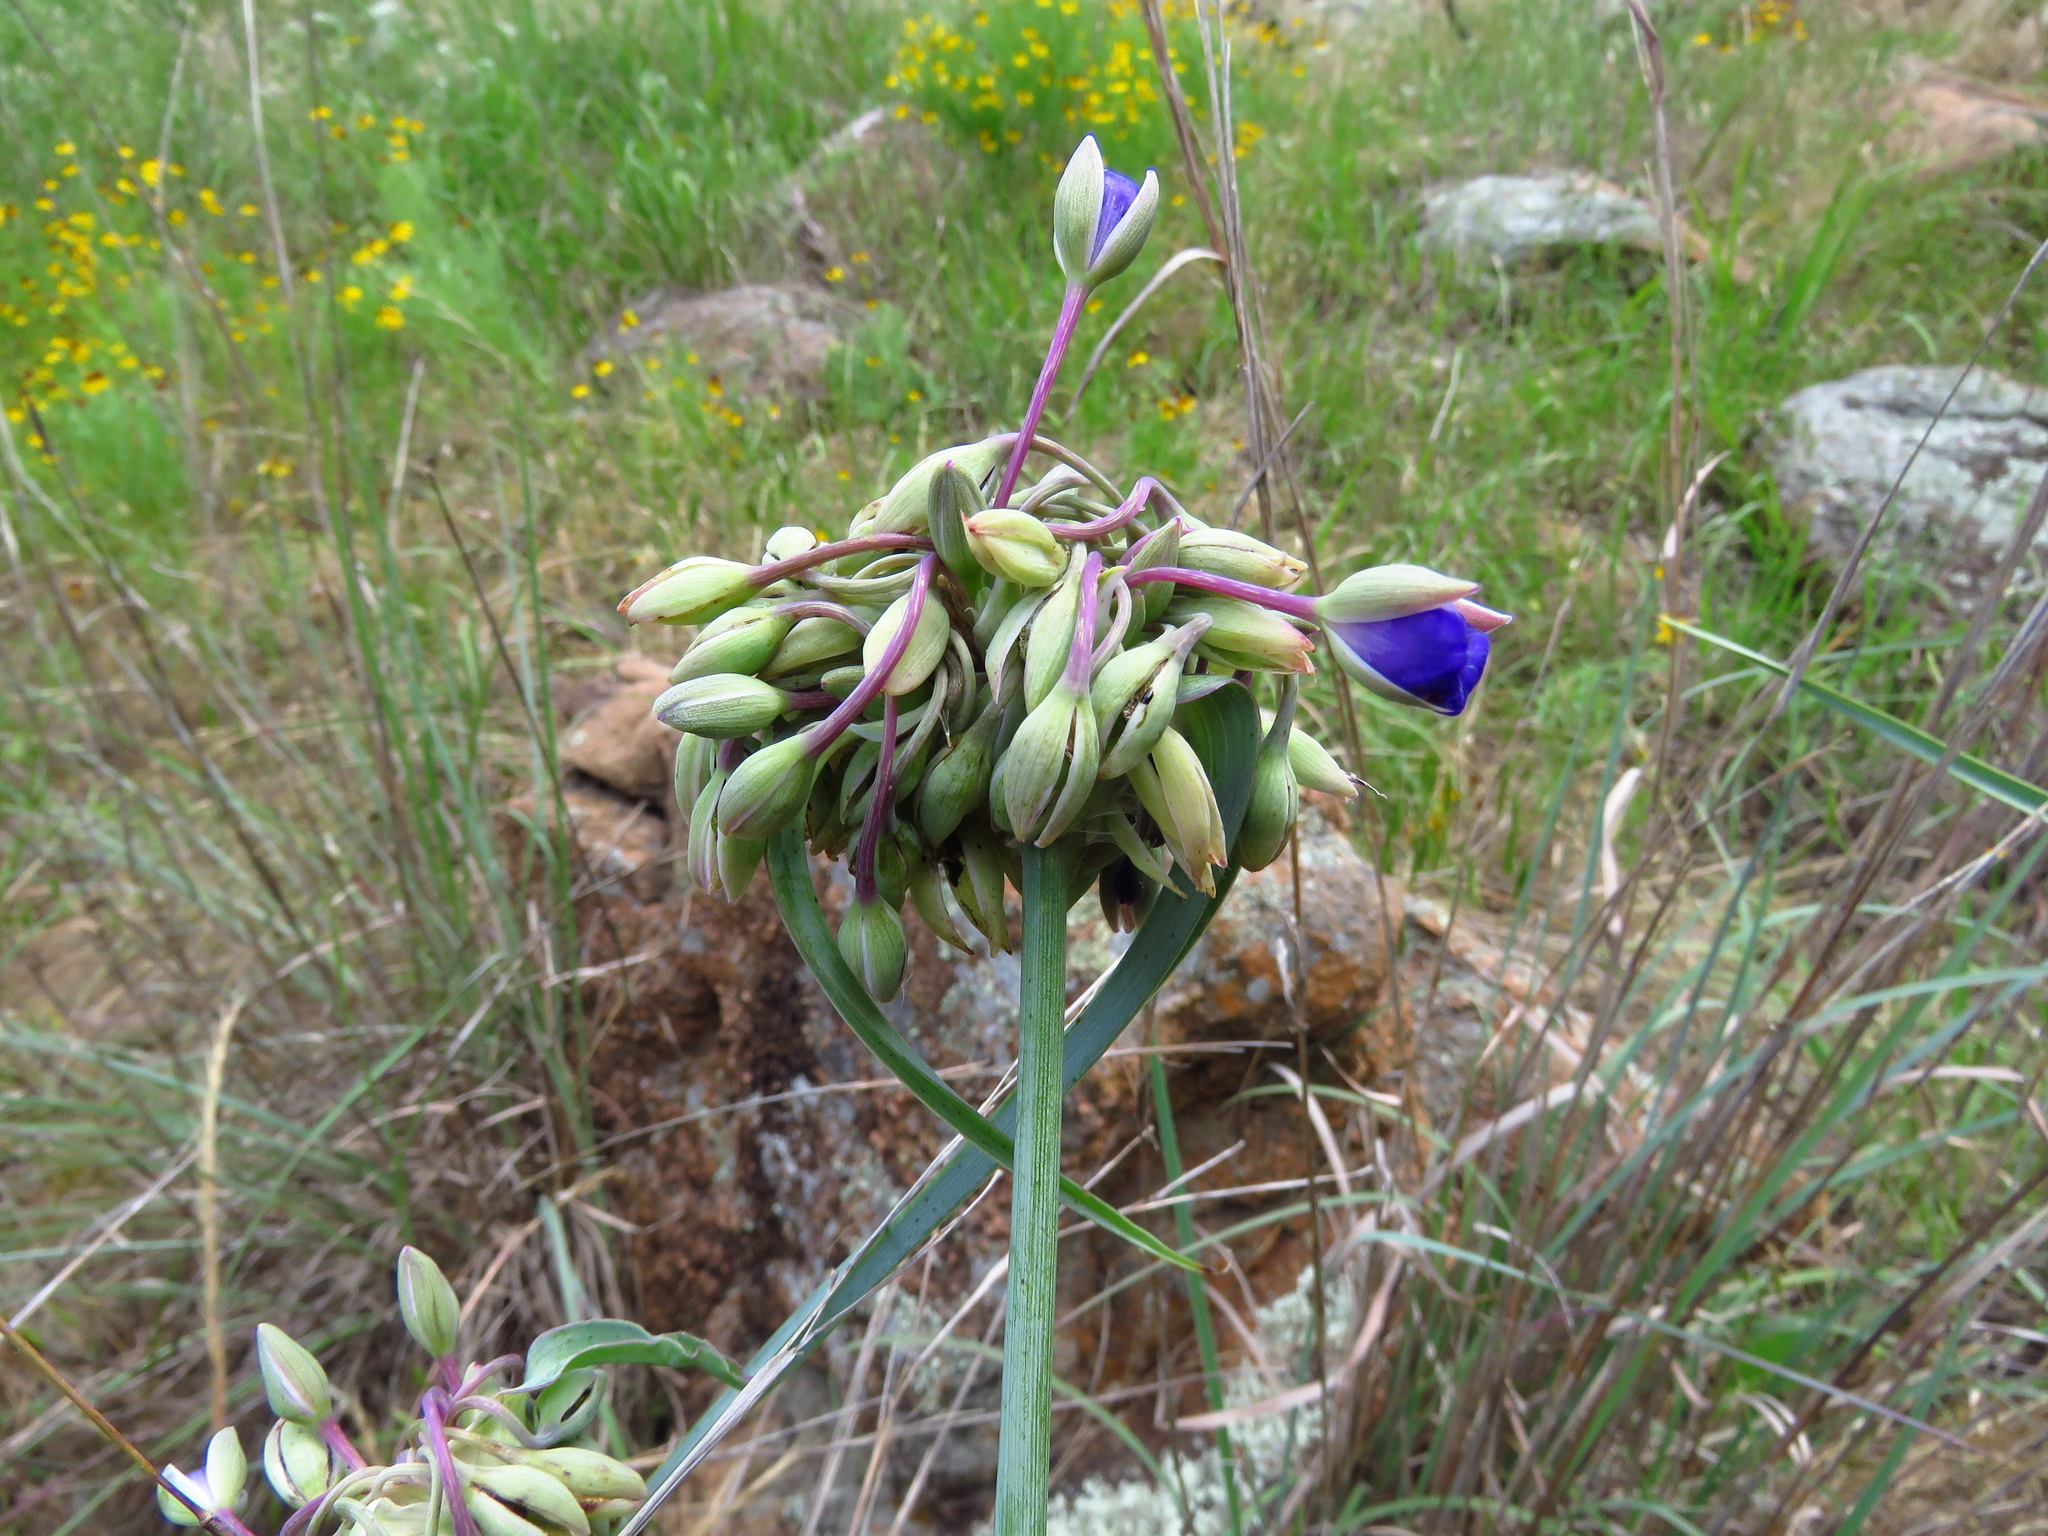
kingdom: Plantae
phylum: Tracheophyta
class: Liliopsida
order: Commelinales
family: Commelinaceae
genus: Tradescantia
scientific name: Tradescantia ohiensis
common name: Ohio spiderwort
